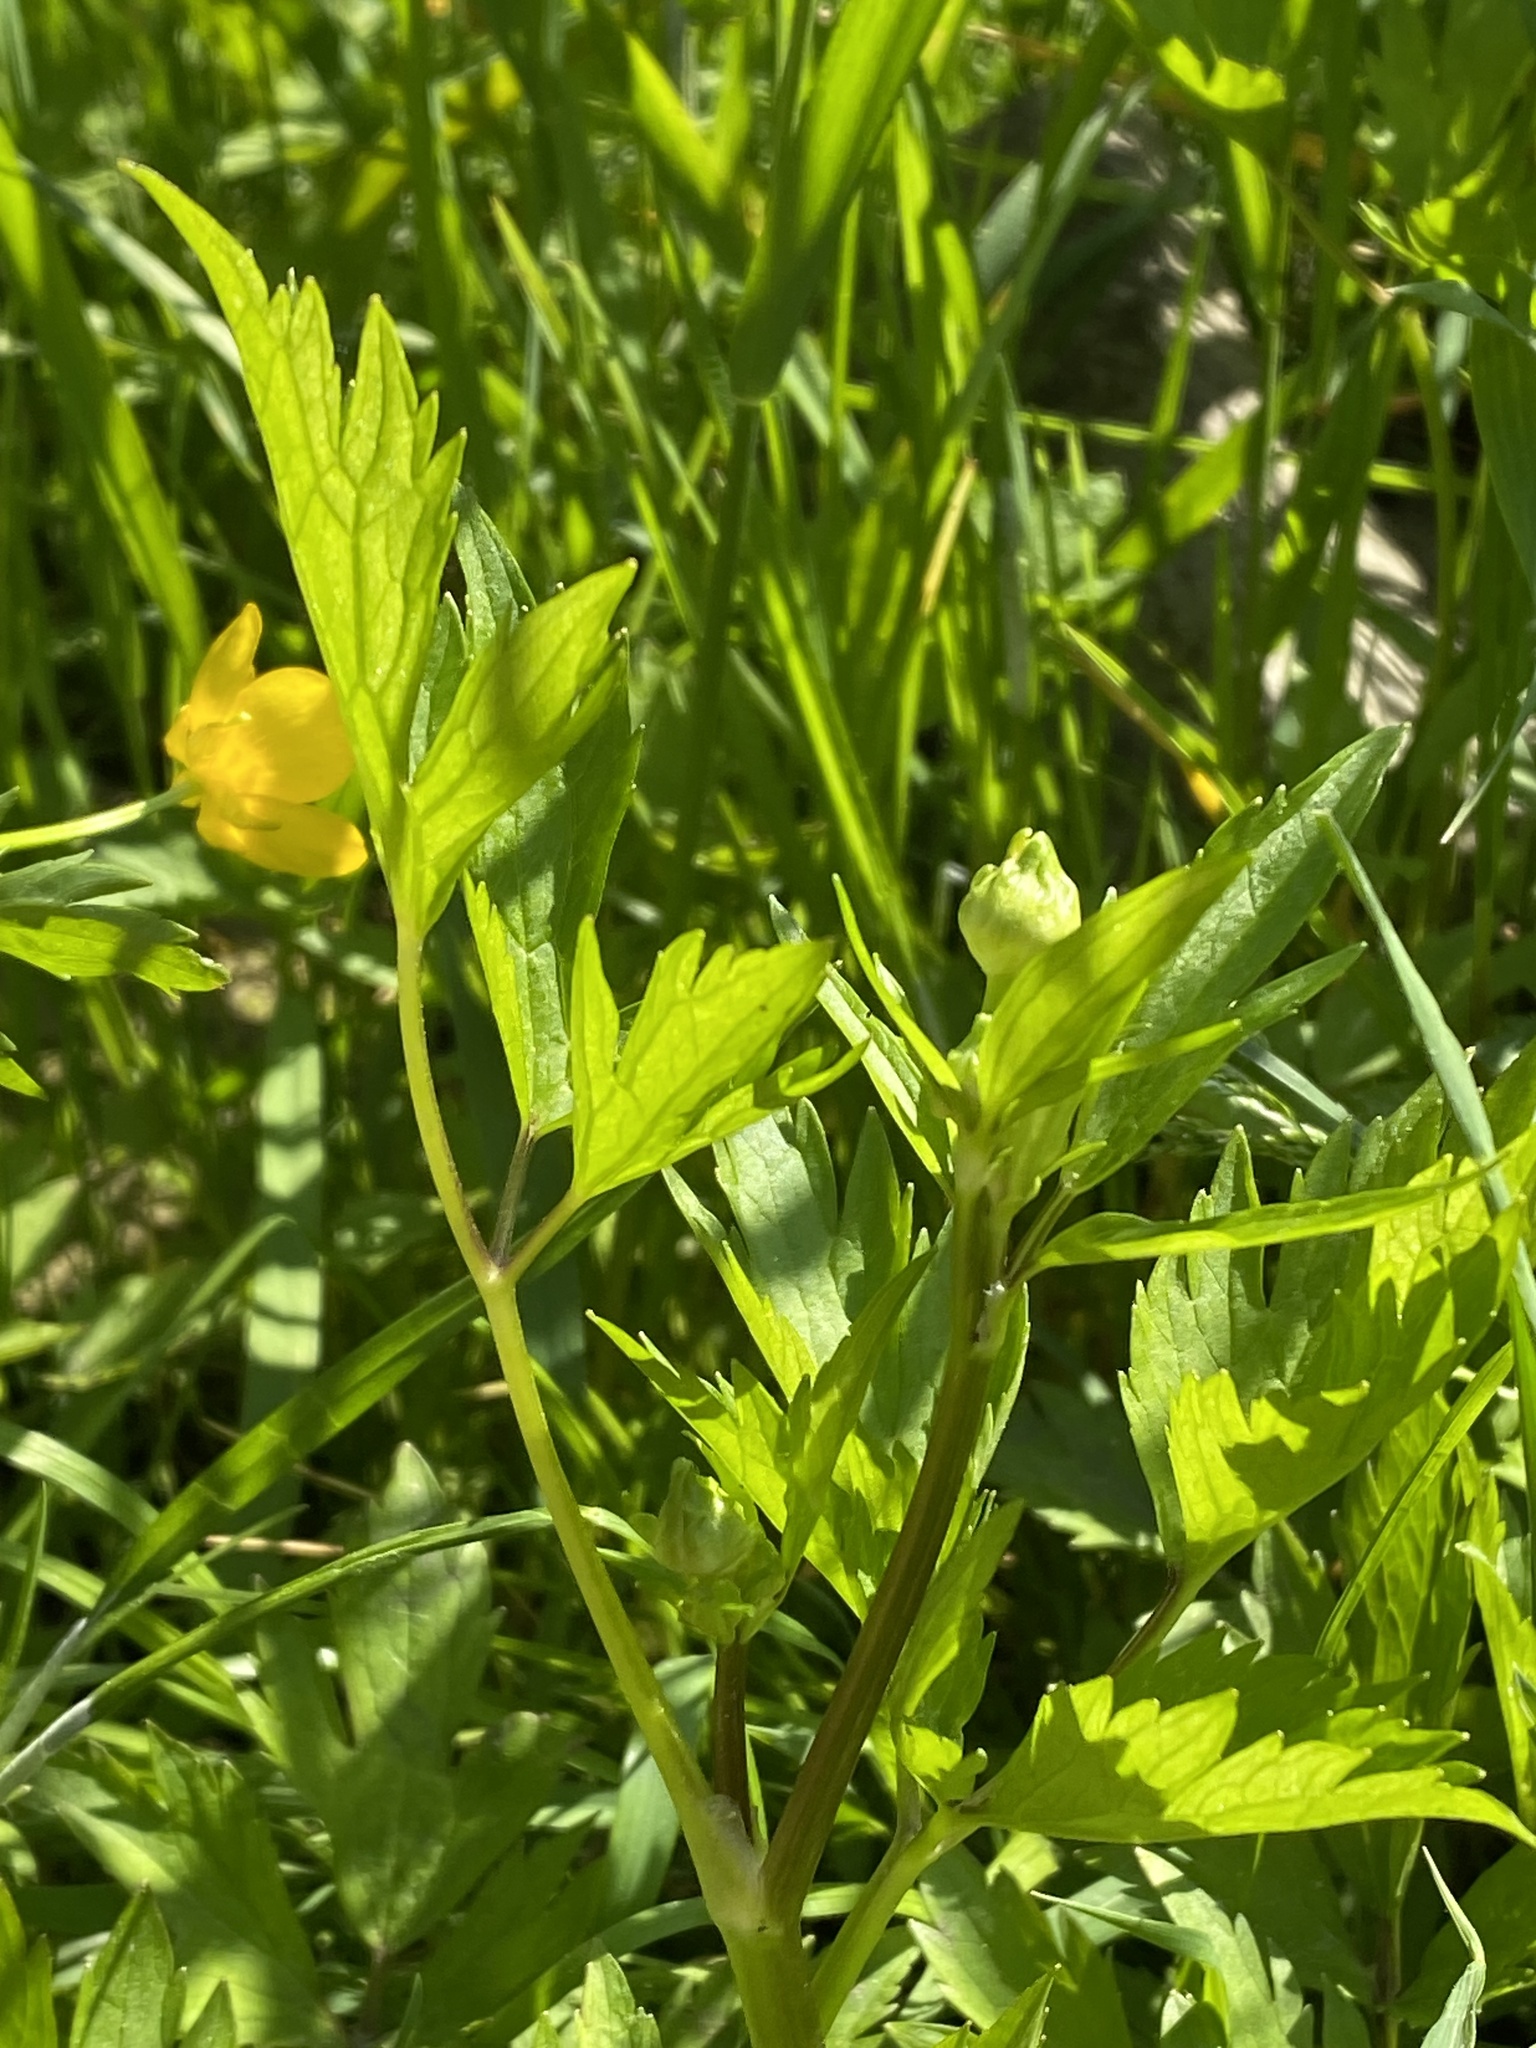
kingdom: Plantae
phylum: Tracheophyta
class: Magnoliopsida
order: Ranunculales
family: Ranunculaceae
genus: Ranunculus
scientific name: Ranunculus repens
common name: Creeping buttercup
